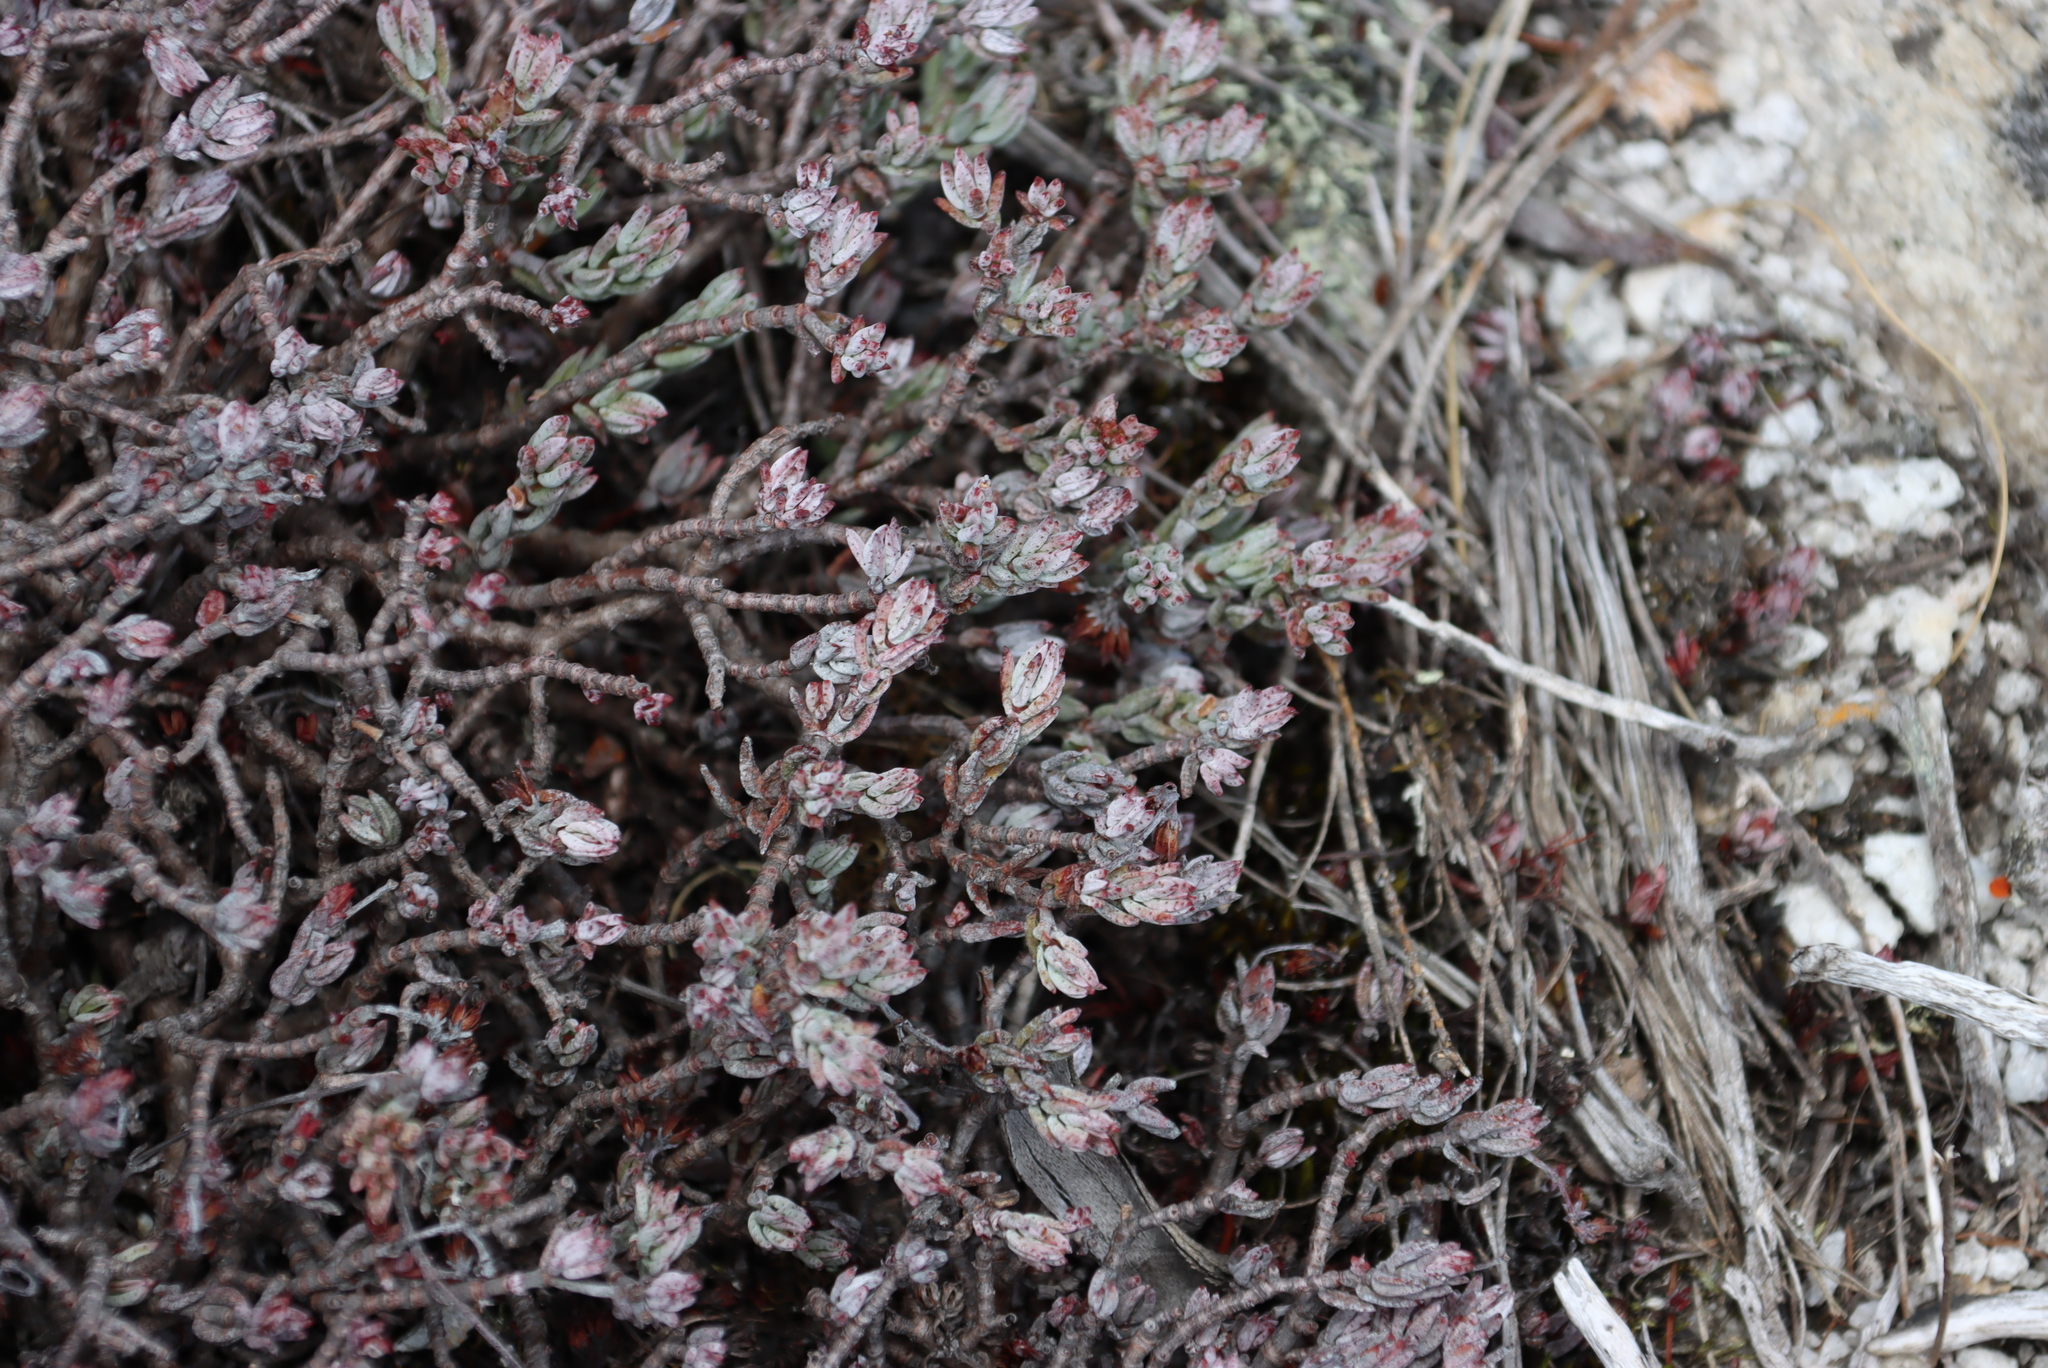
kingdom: Plantae
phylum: Tracheophyta
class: Magnoliopsida
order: Saxifragales
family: Crassulaceae
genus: Crassula
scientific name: Crassula biplanata
